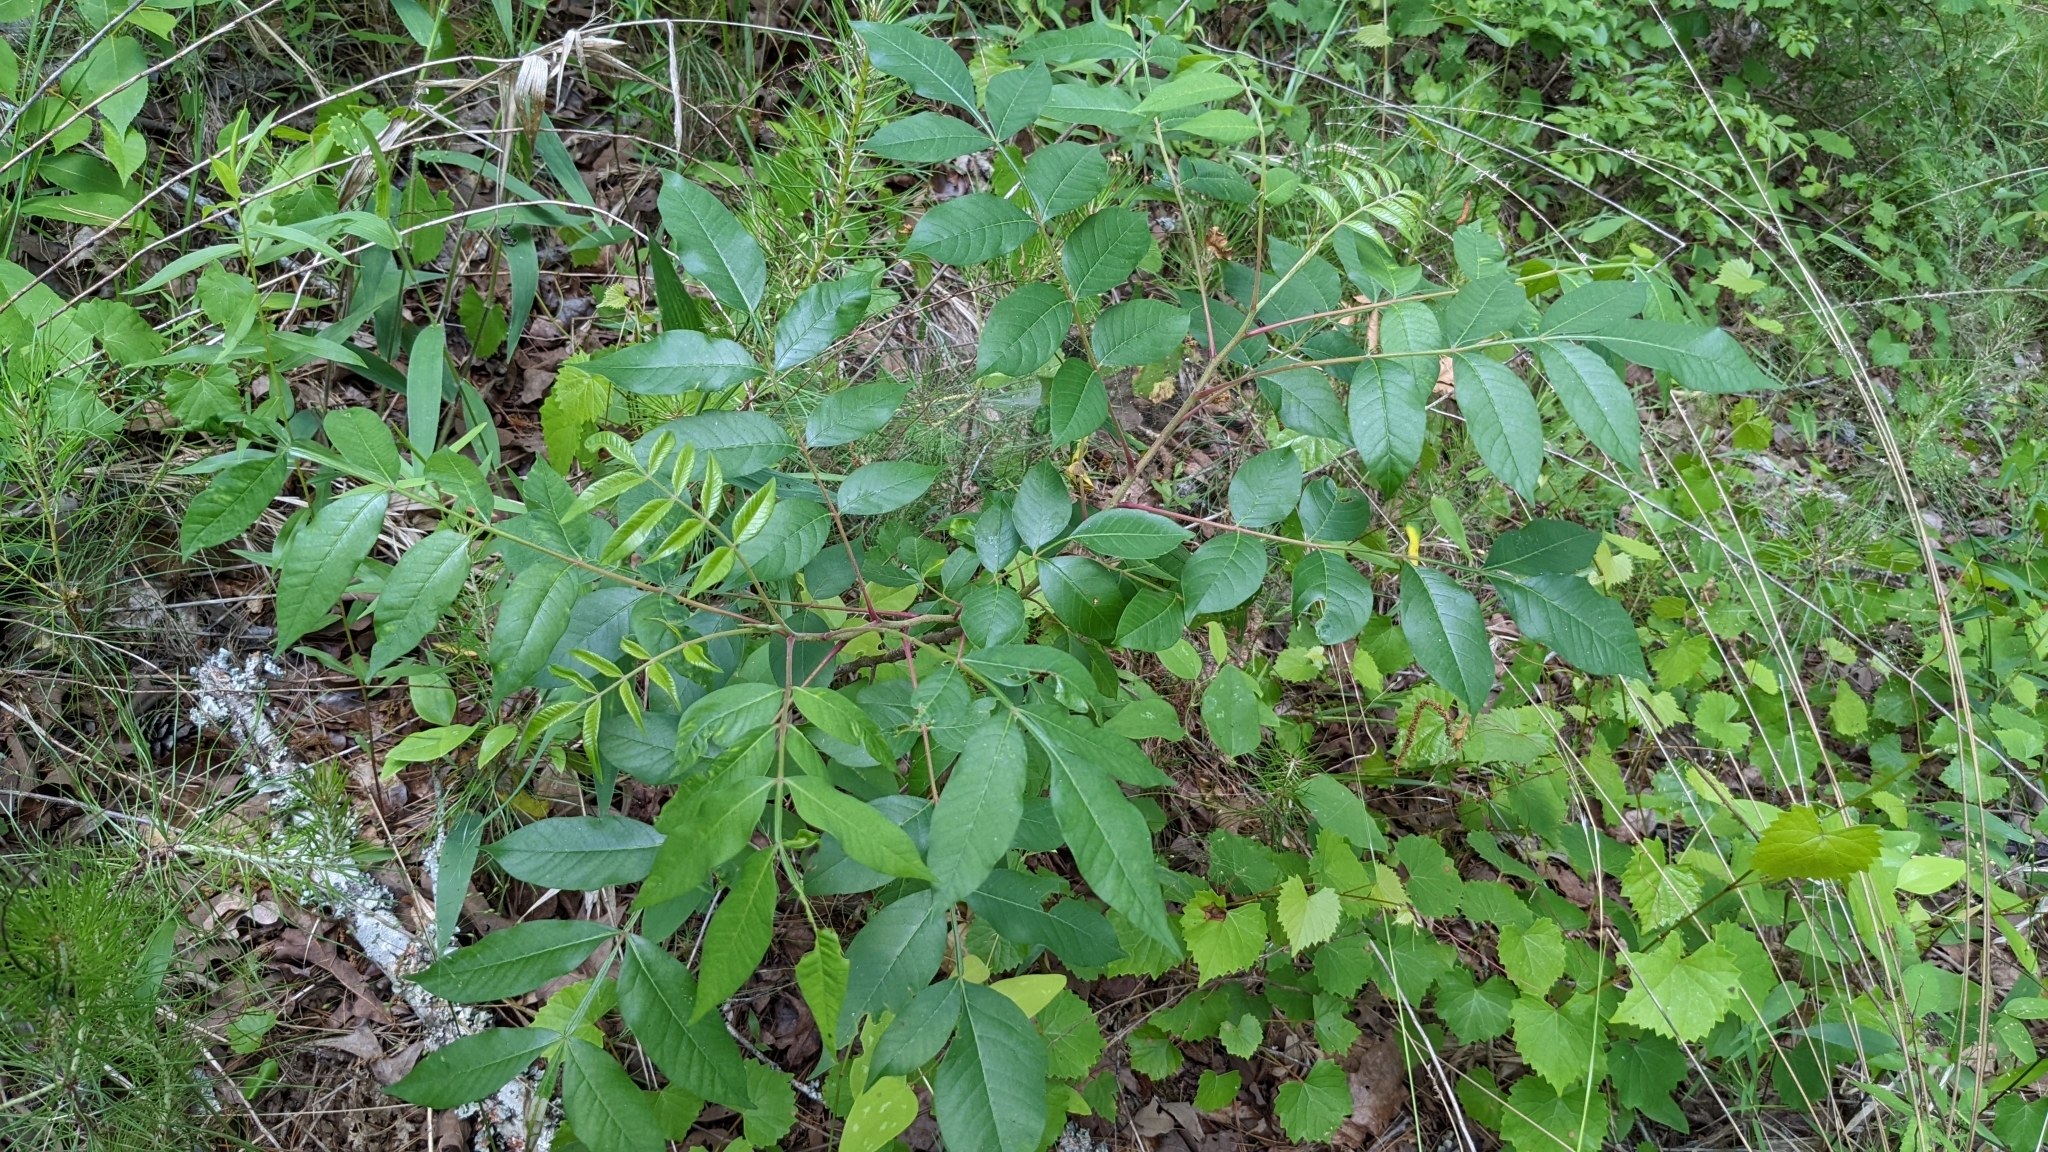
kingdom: Plantae
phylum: Tracheophyta
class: Magnoliopsida
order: Sapindales
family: Anacardiaceae
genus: Rhus
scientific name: Rhus copallina
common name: Shining sumac
